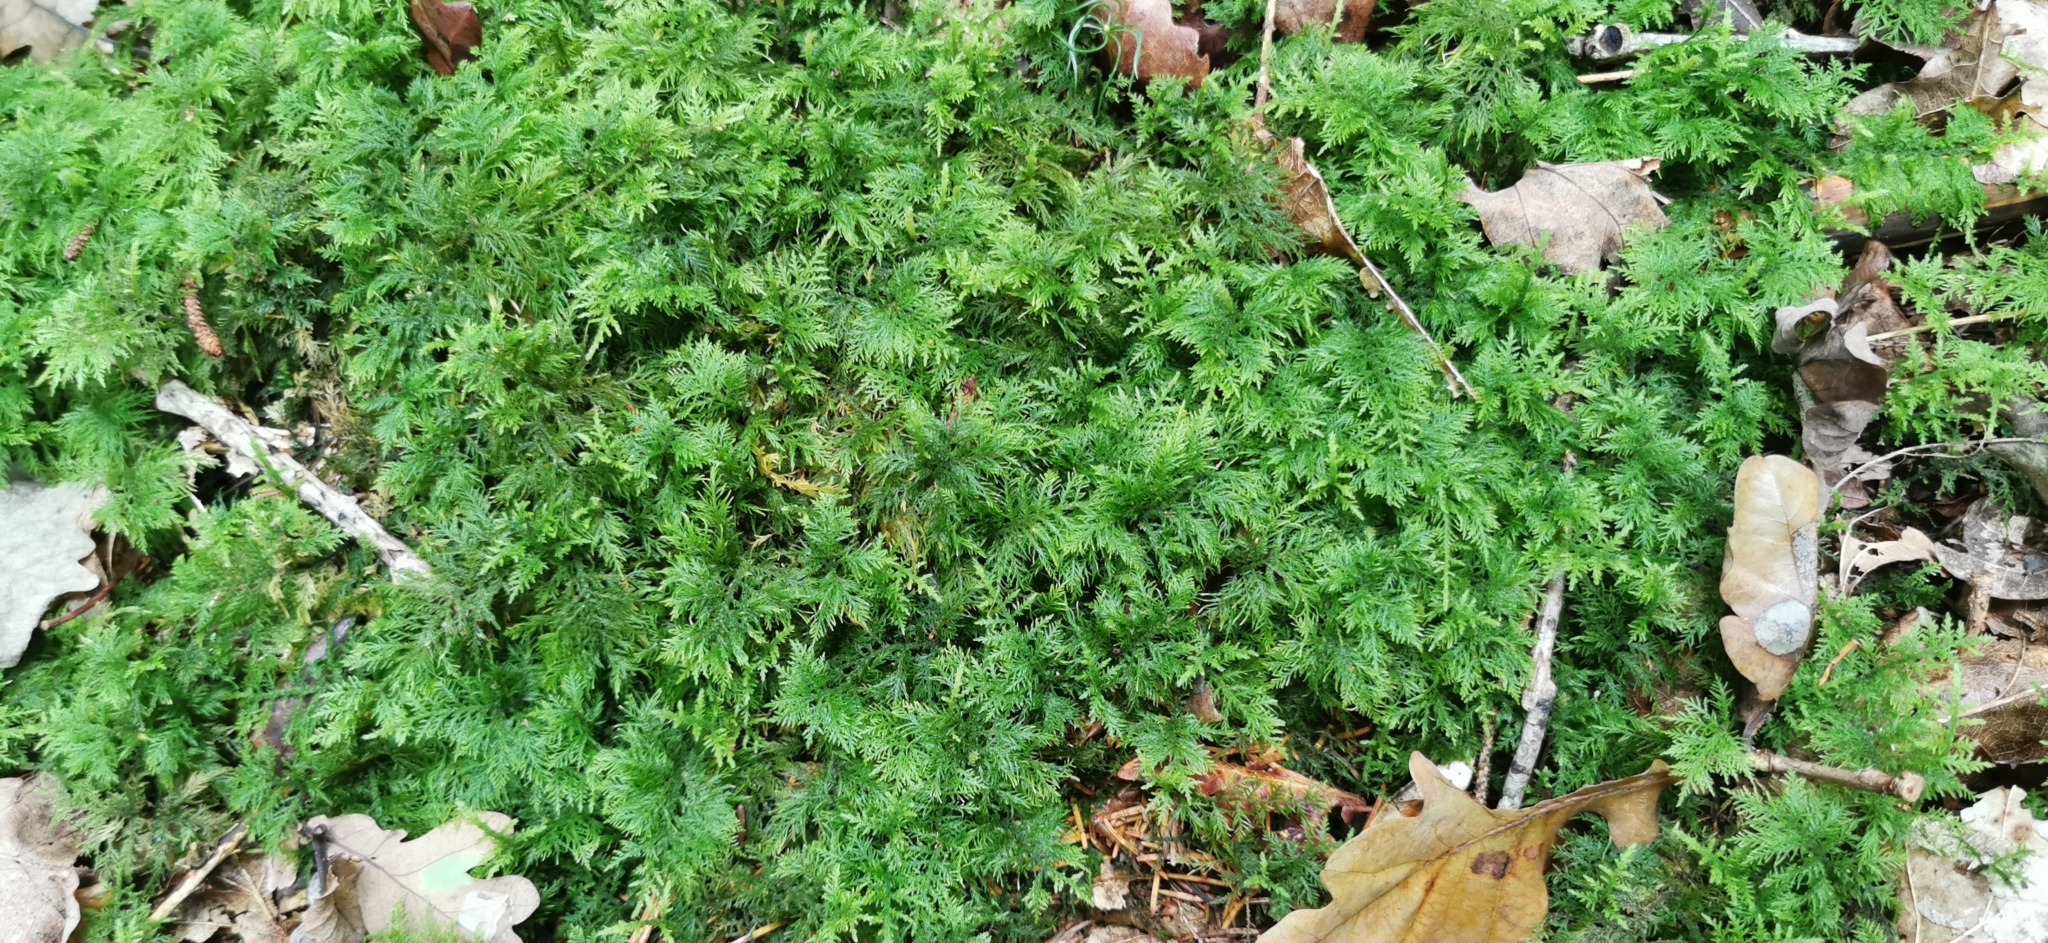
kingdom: Plantae
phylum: Bryophyta
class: Bryopsida
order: Hypnales
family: Thuidiaceae
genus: Thuidium
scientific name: Thuidium tamariscinum
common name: Common tamarisk-moss
